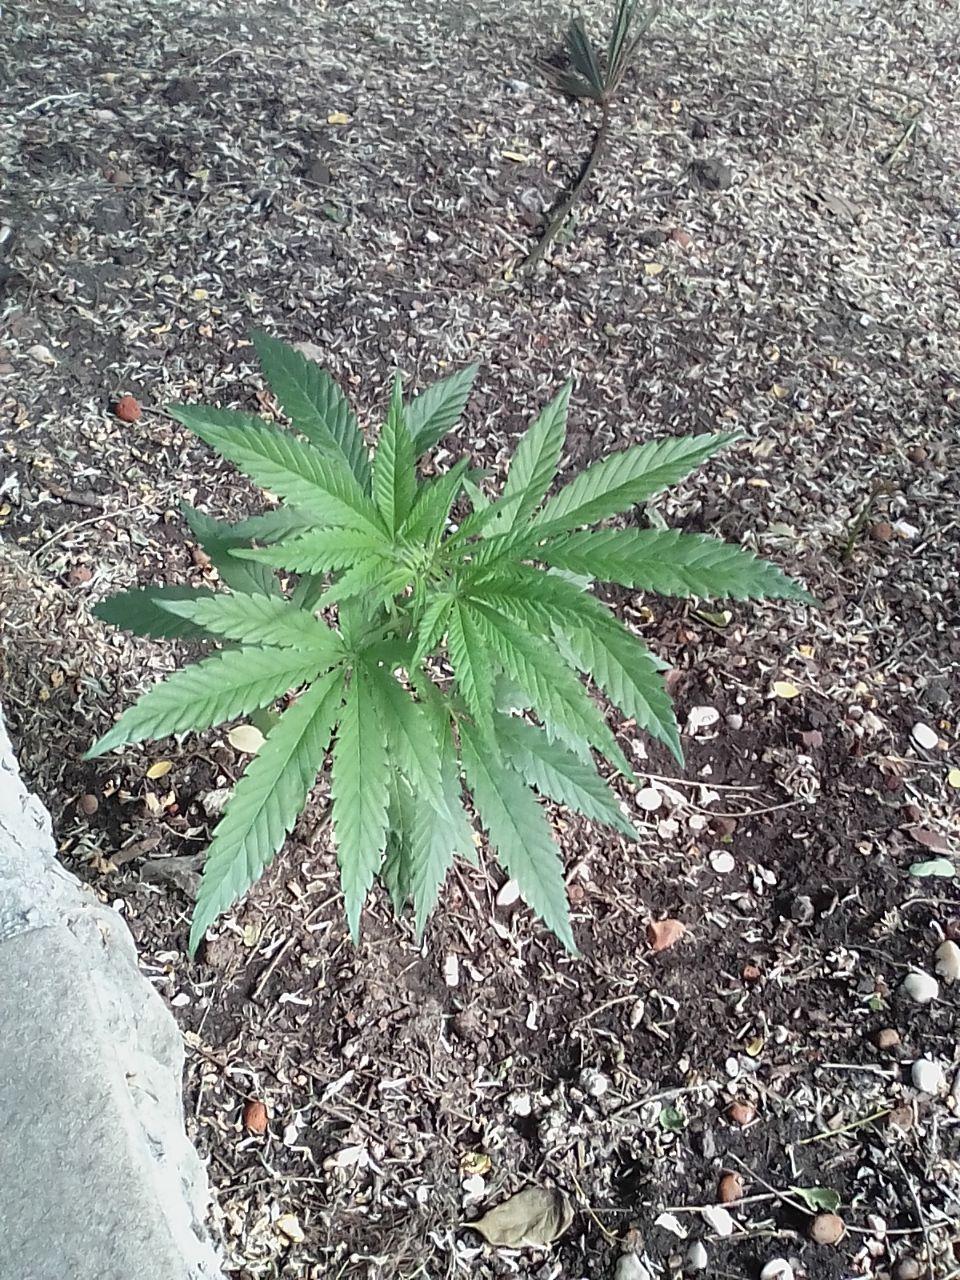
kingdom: Plantae
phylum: Tracheophyta
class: Magnoliopsida
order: Rosales
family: Cannabaceae
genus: Cannabis
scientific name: Cannabis sativa
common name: Hemp
